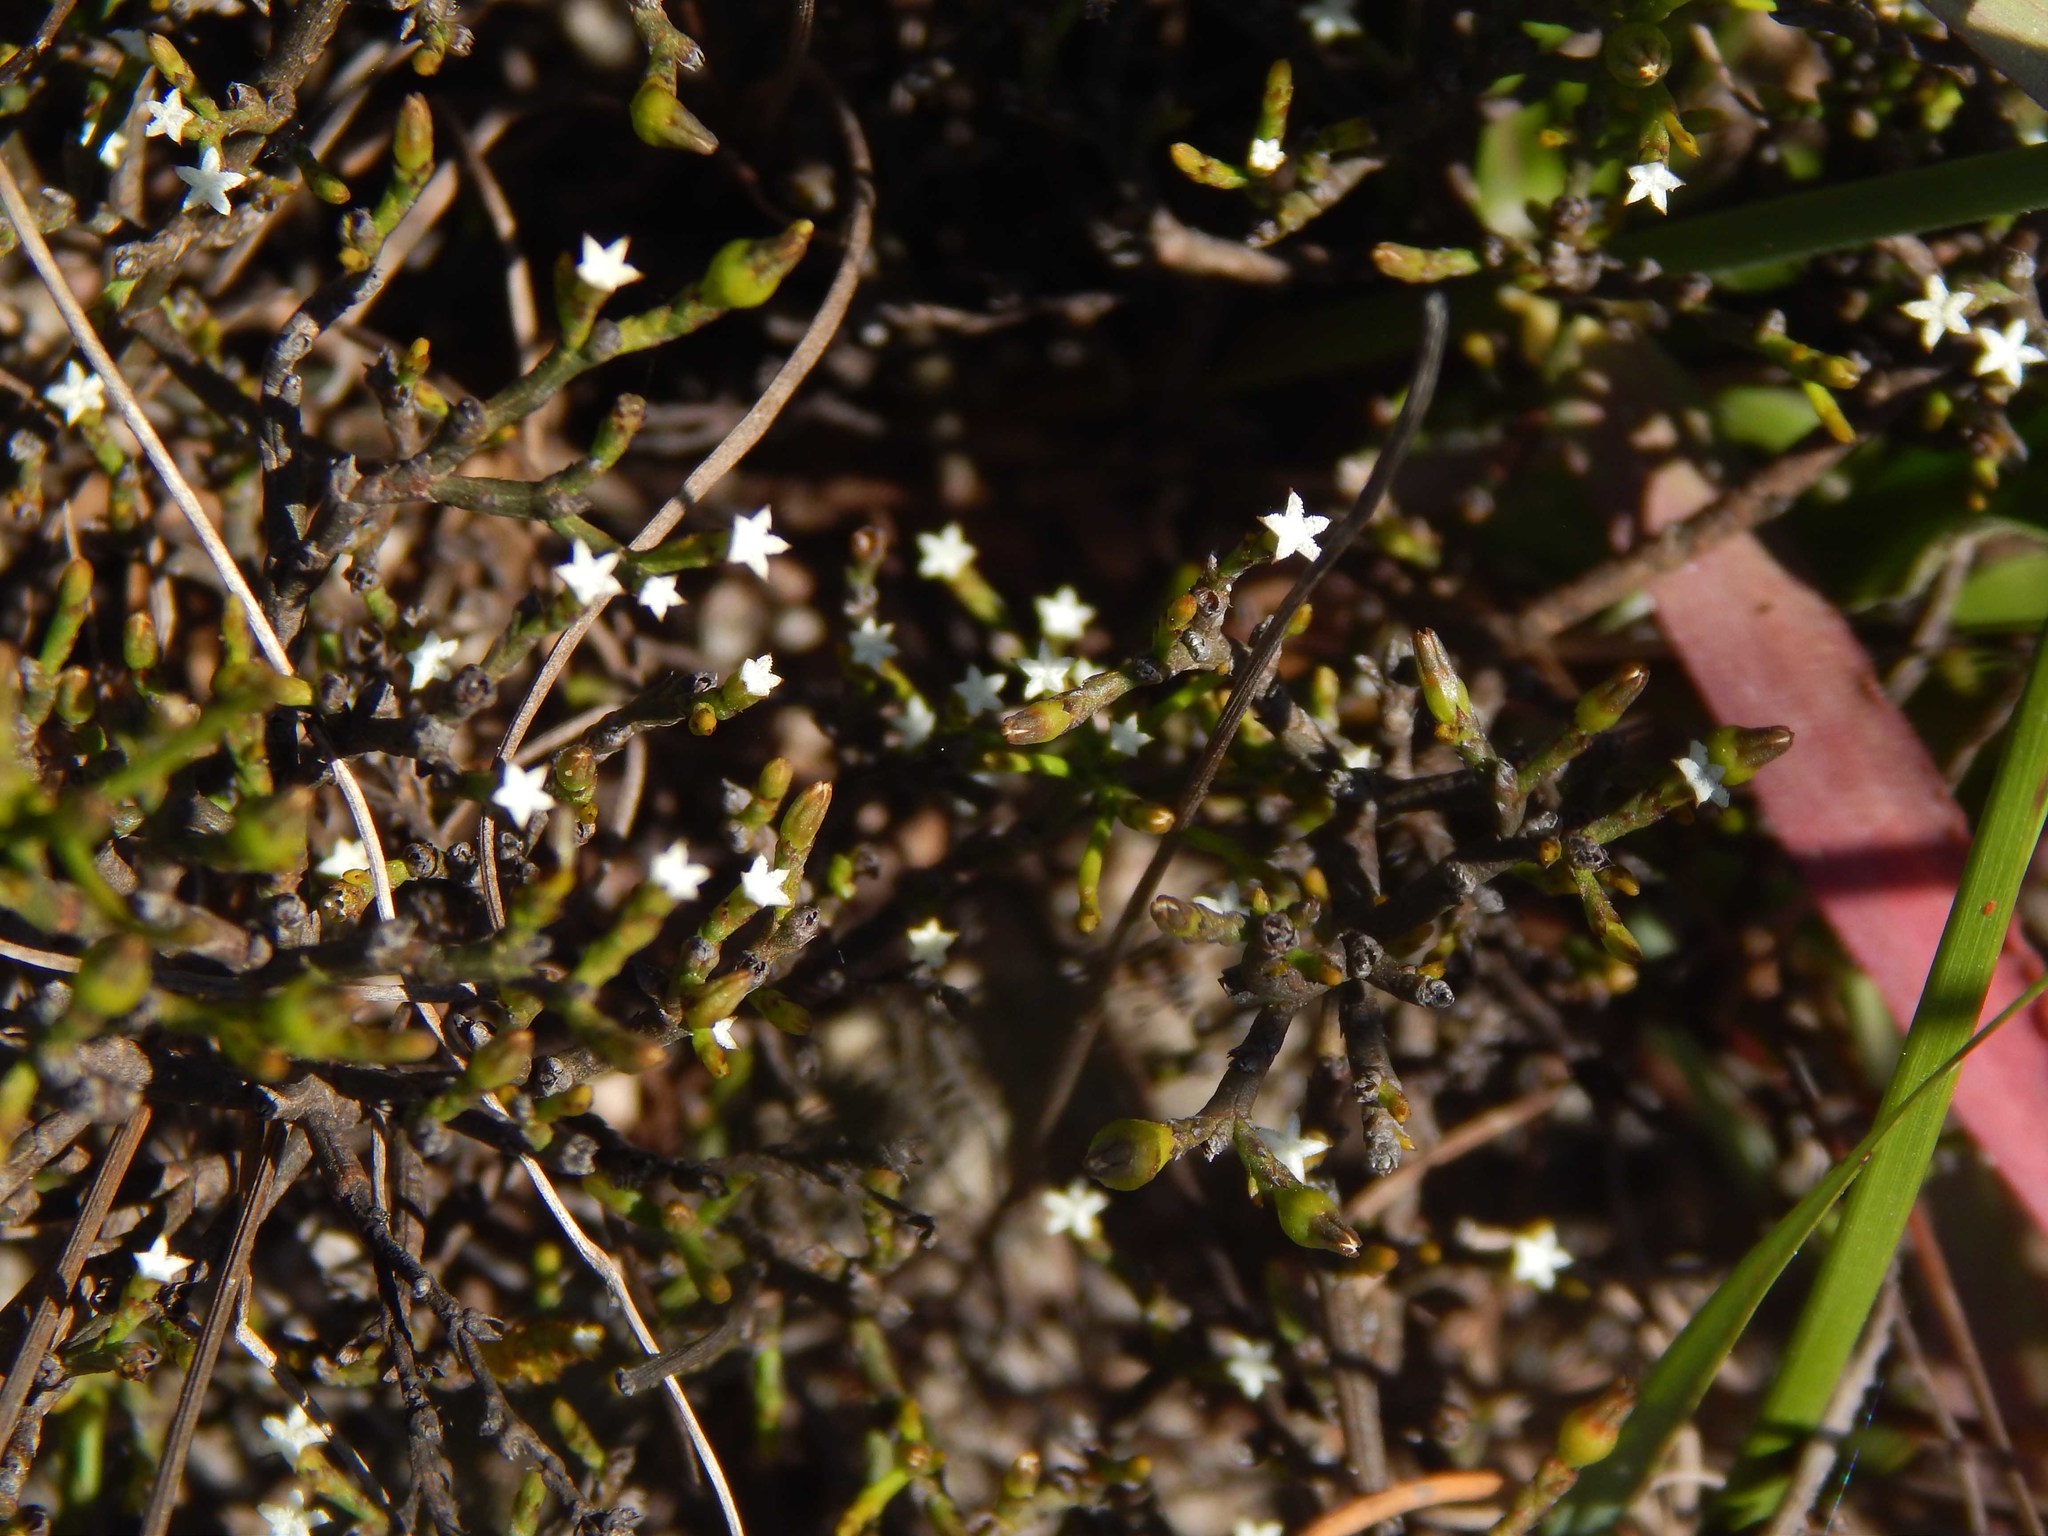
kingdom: Plantae
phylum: Tracheophyta
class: Magnoliopsida
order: Santalales
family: Thesiaceae
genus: Thesium
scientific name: Thesium euphrasioides
